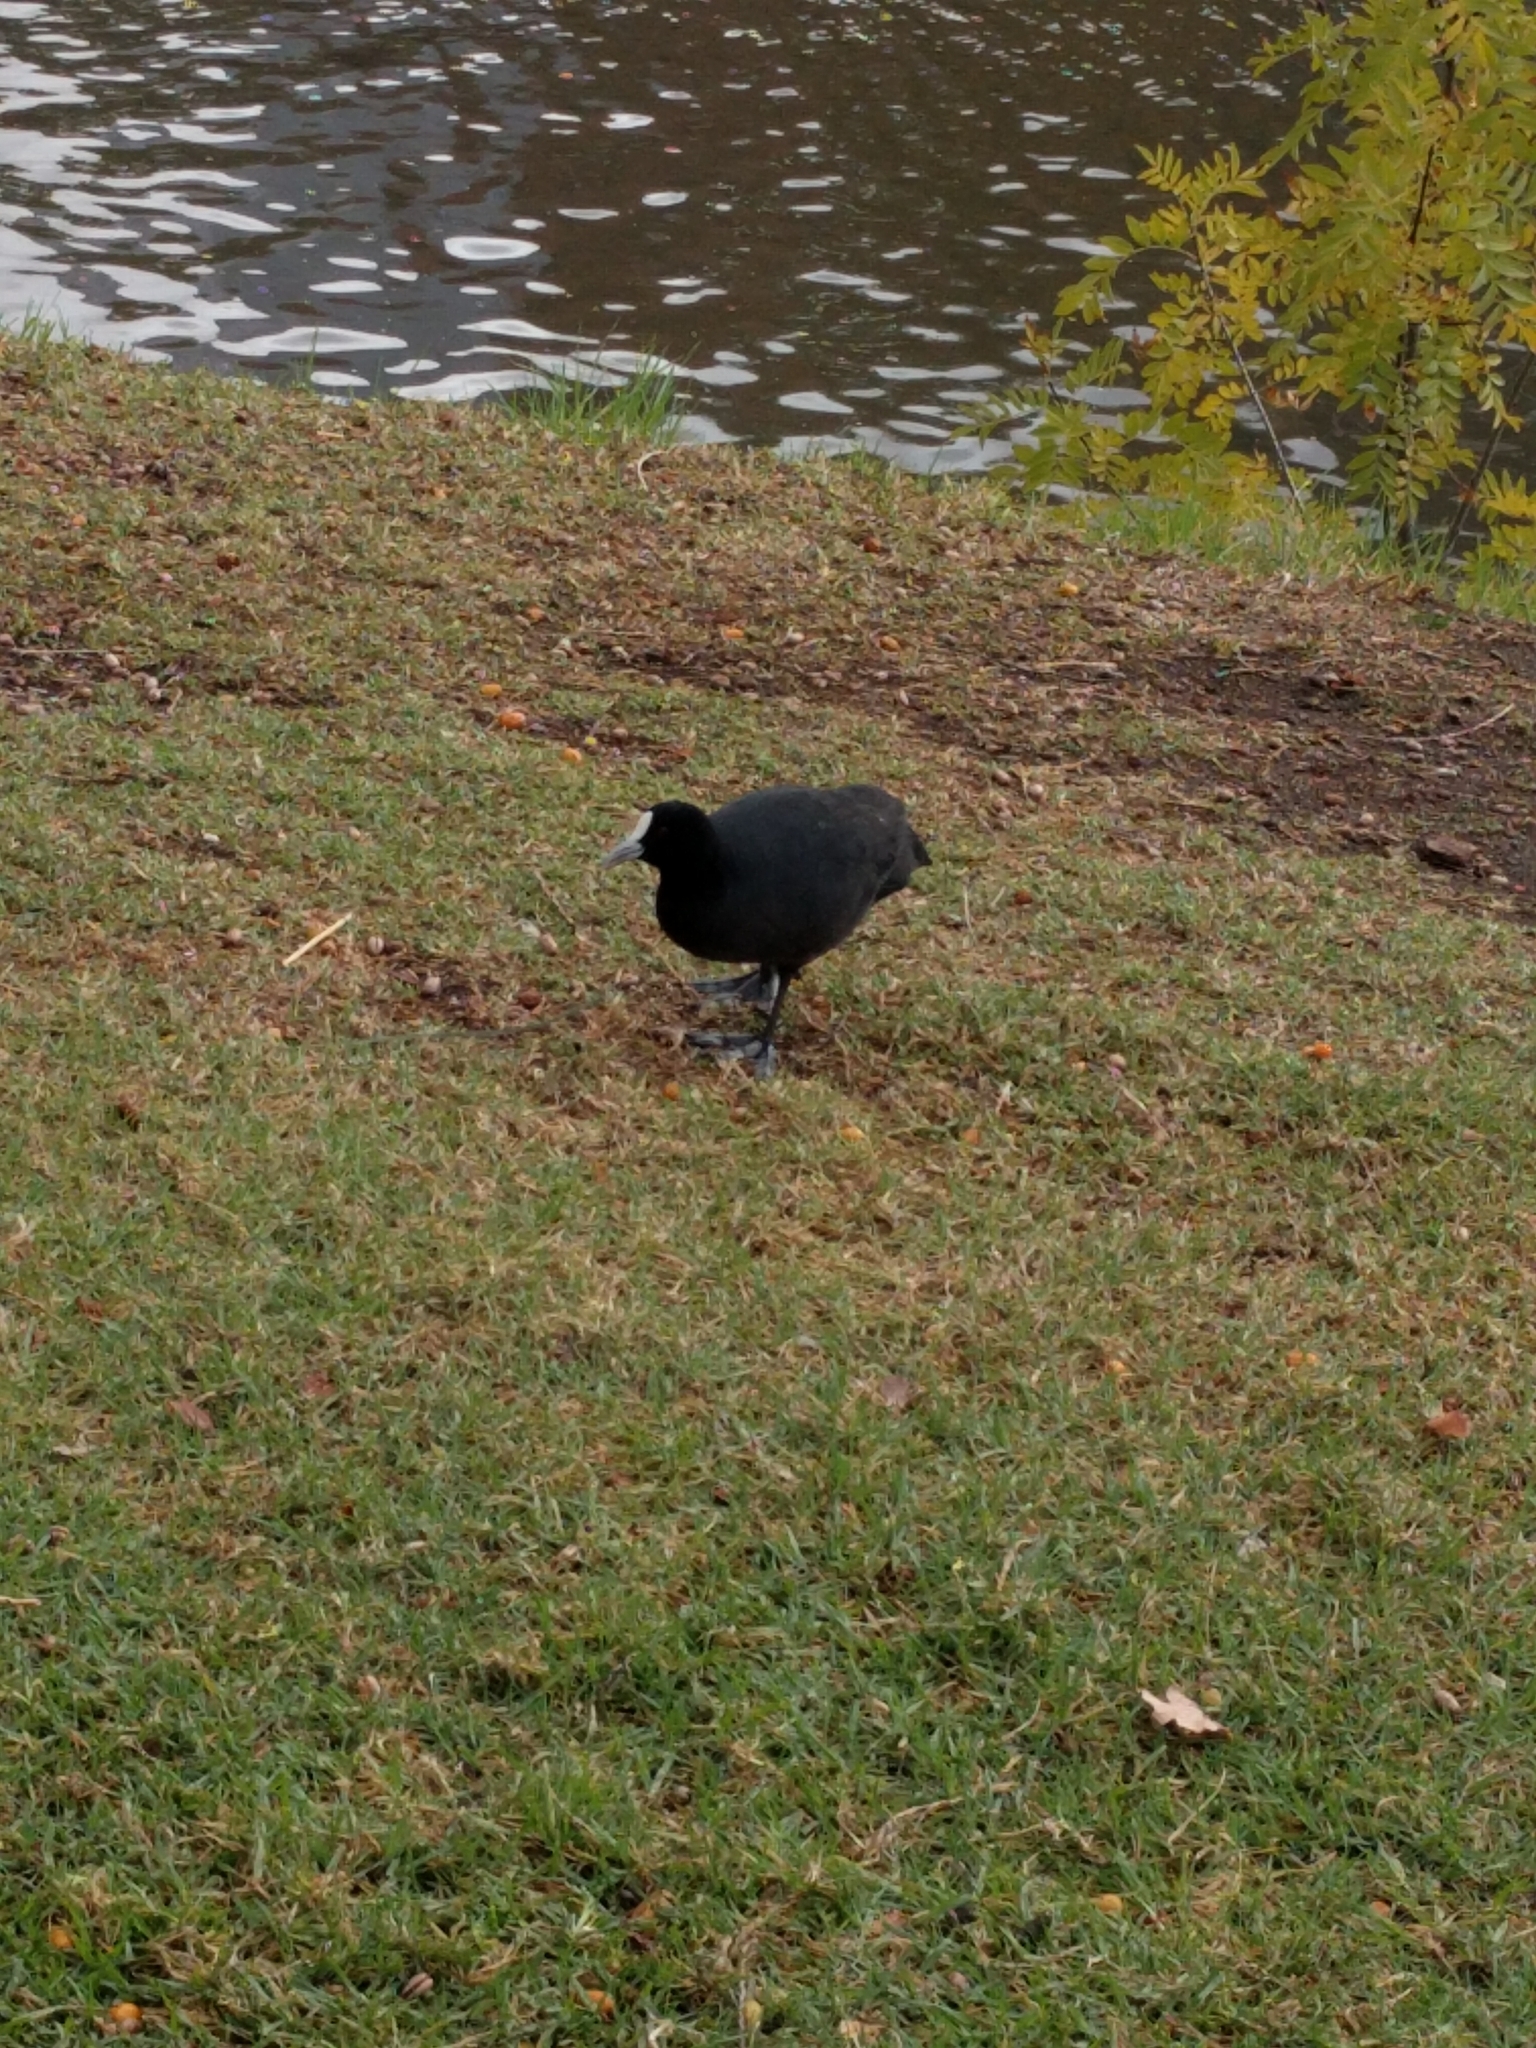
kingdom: Animalia
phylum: Chordata
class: Aves
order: Gruiformes
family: Rallidae
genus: Fulica
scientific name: Fulica atra
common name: Eurasian coot
